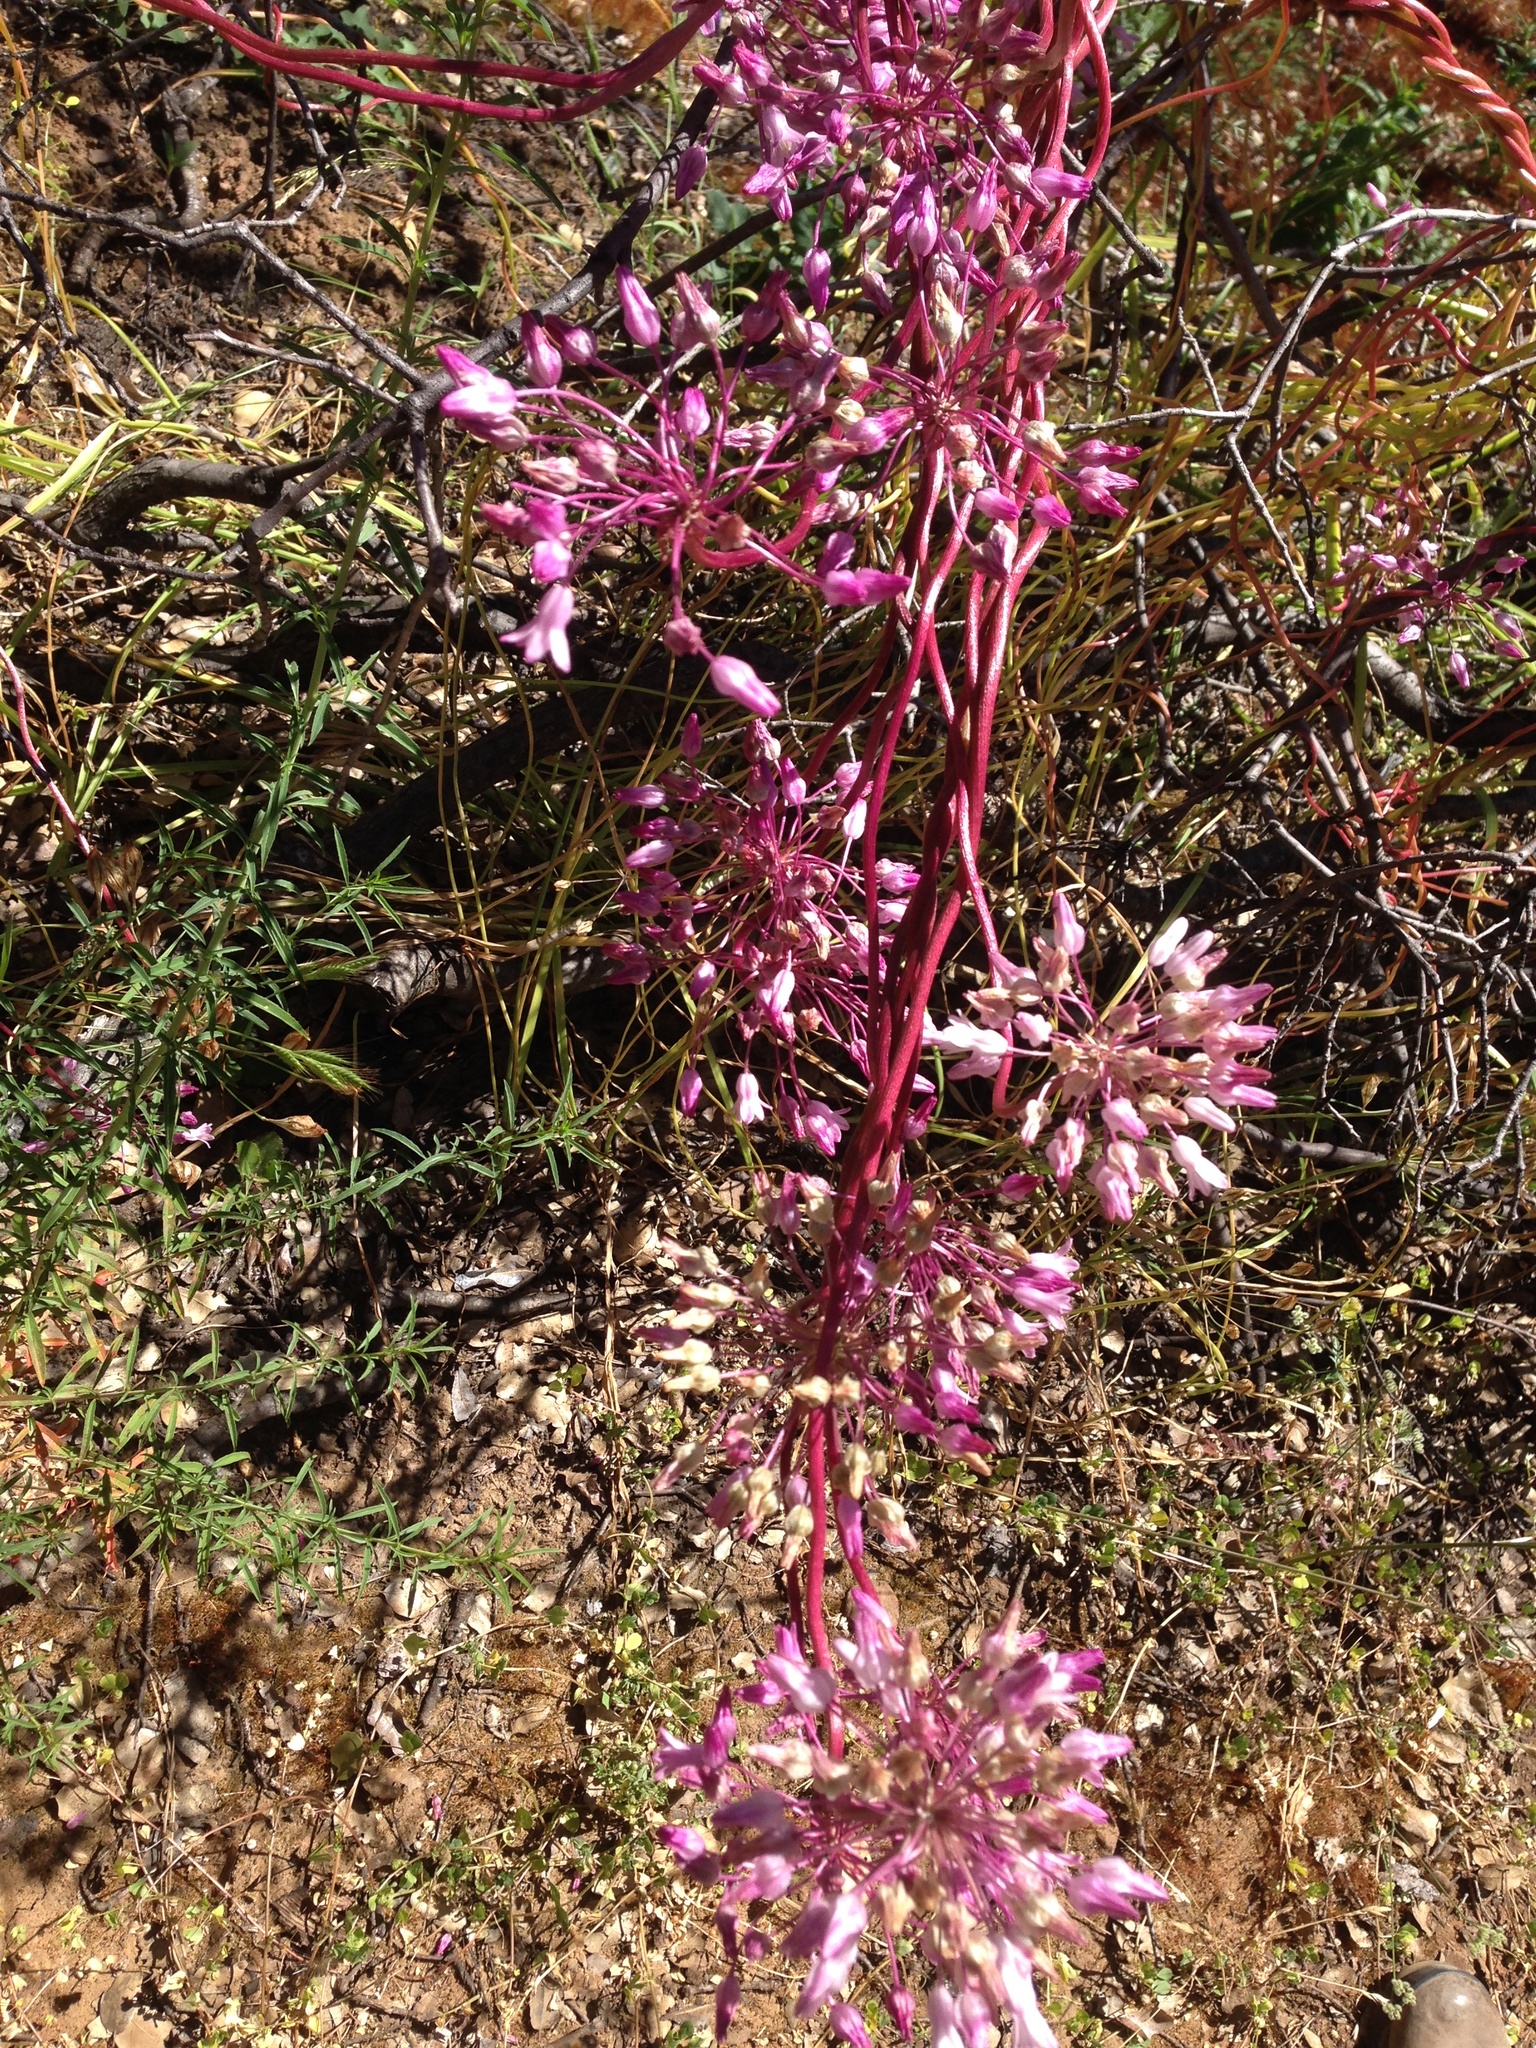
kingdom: Plantae
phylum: Tracheophyta
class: Liliopsida
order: Asparagales
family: Asparagaceae
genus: Dichelostemma
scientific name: Dichelostemma volubile
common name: Trining brodiaea
